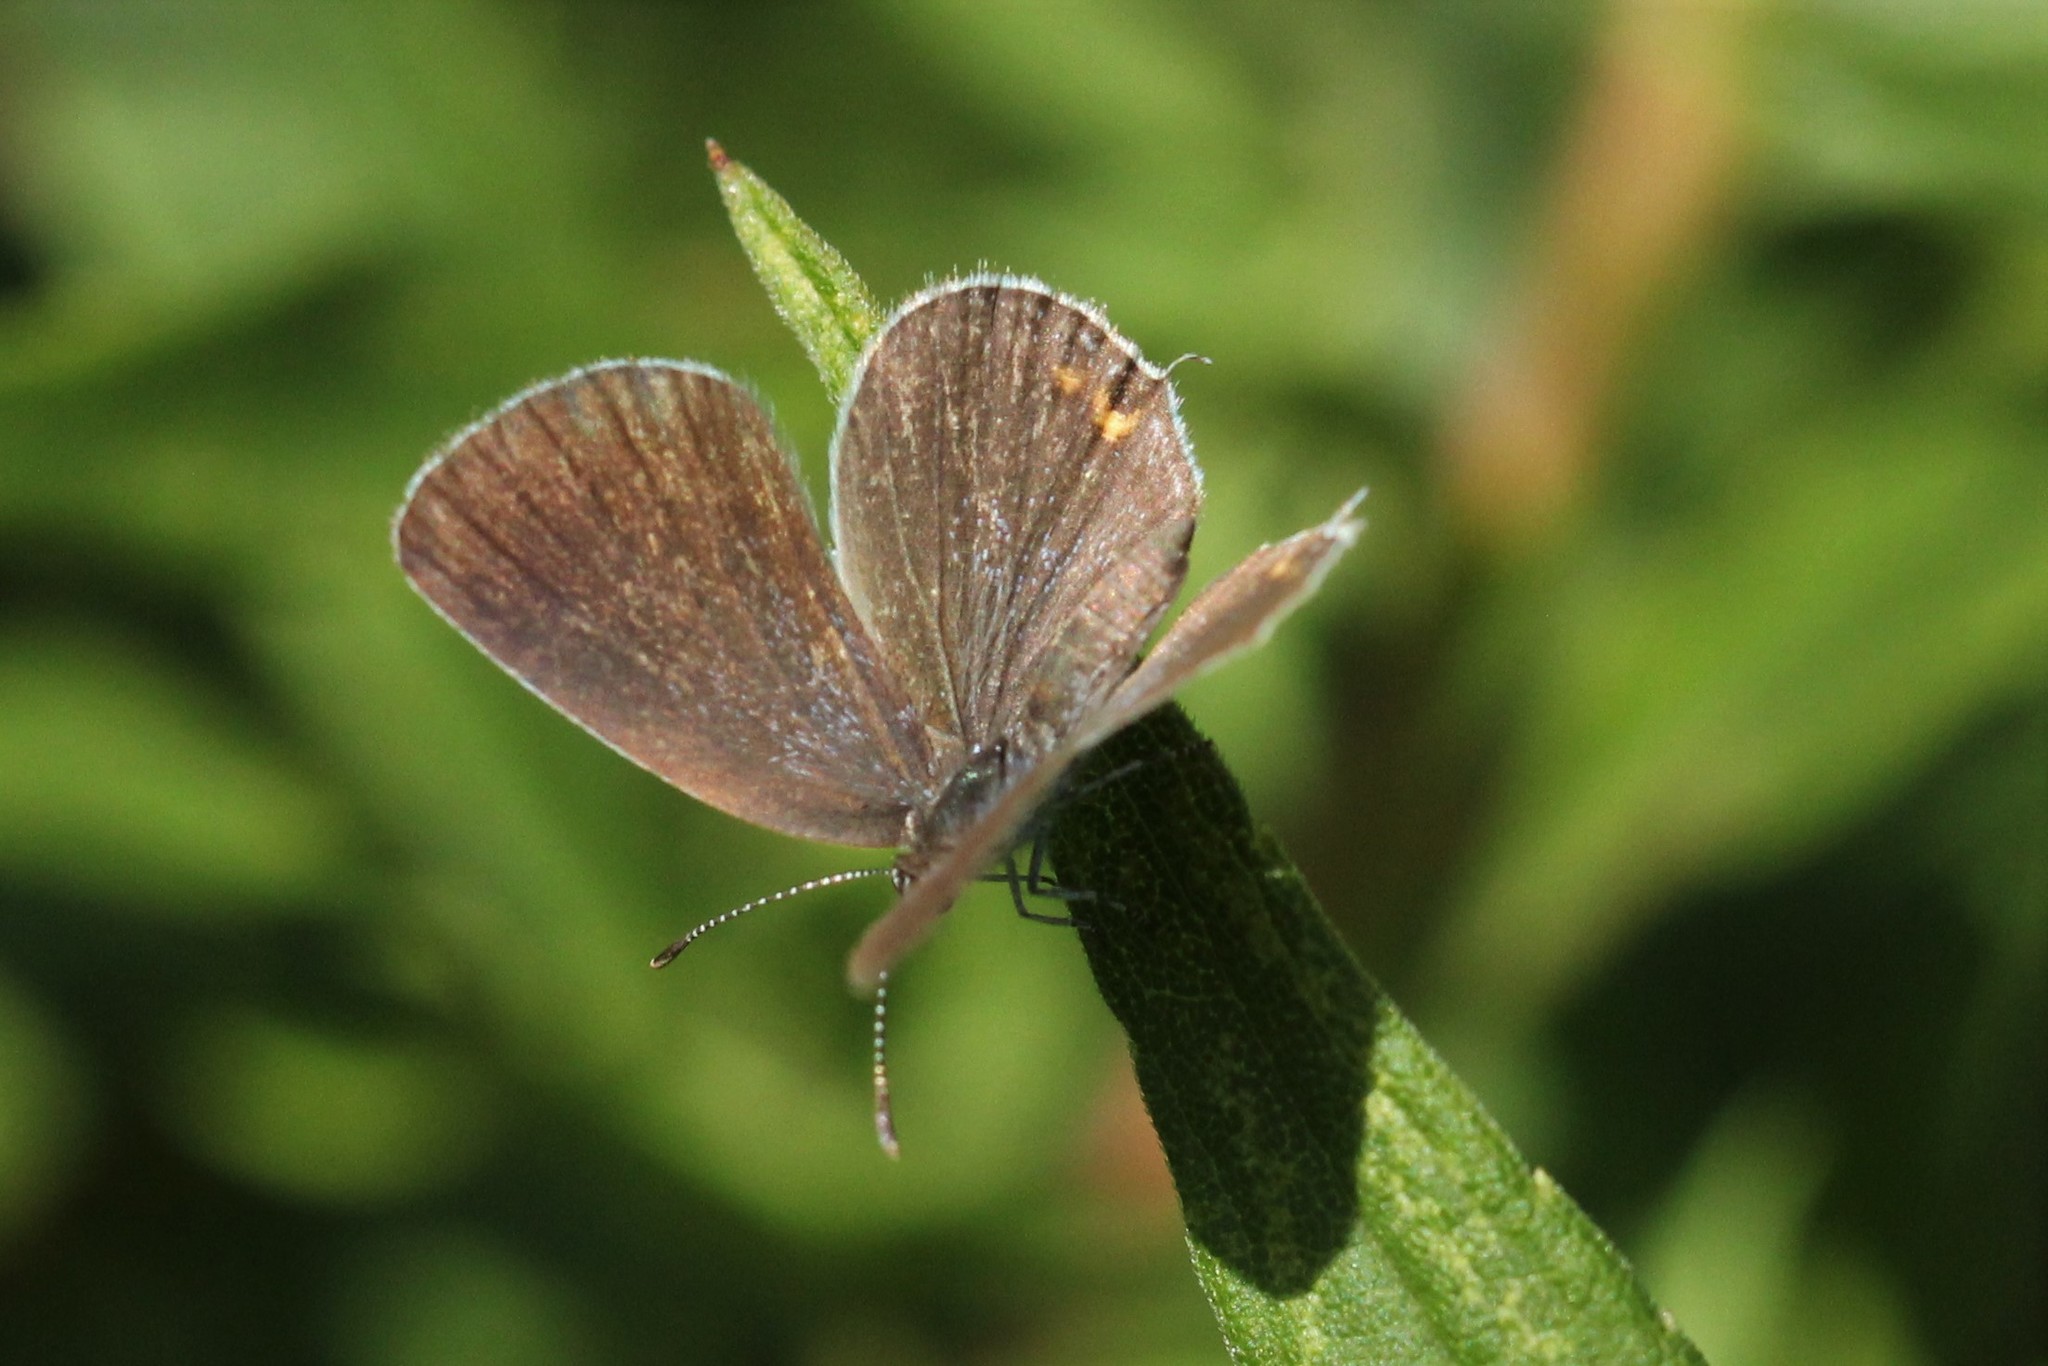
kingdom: Animalia
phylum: Arthropoda
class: Insecta
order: Lepidoptera
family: Lycaenidae
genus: Elkalyce
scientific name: Elkalyce comyntas
